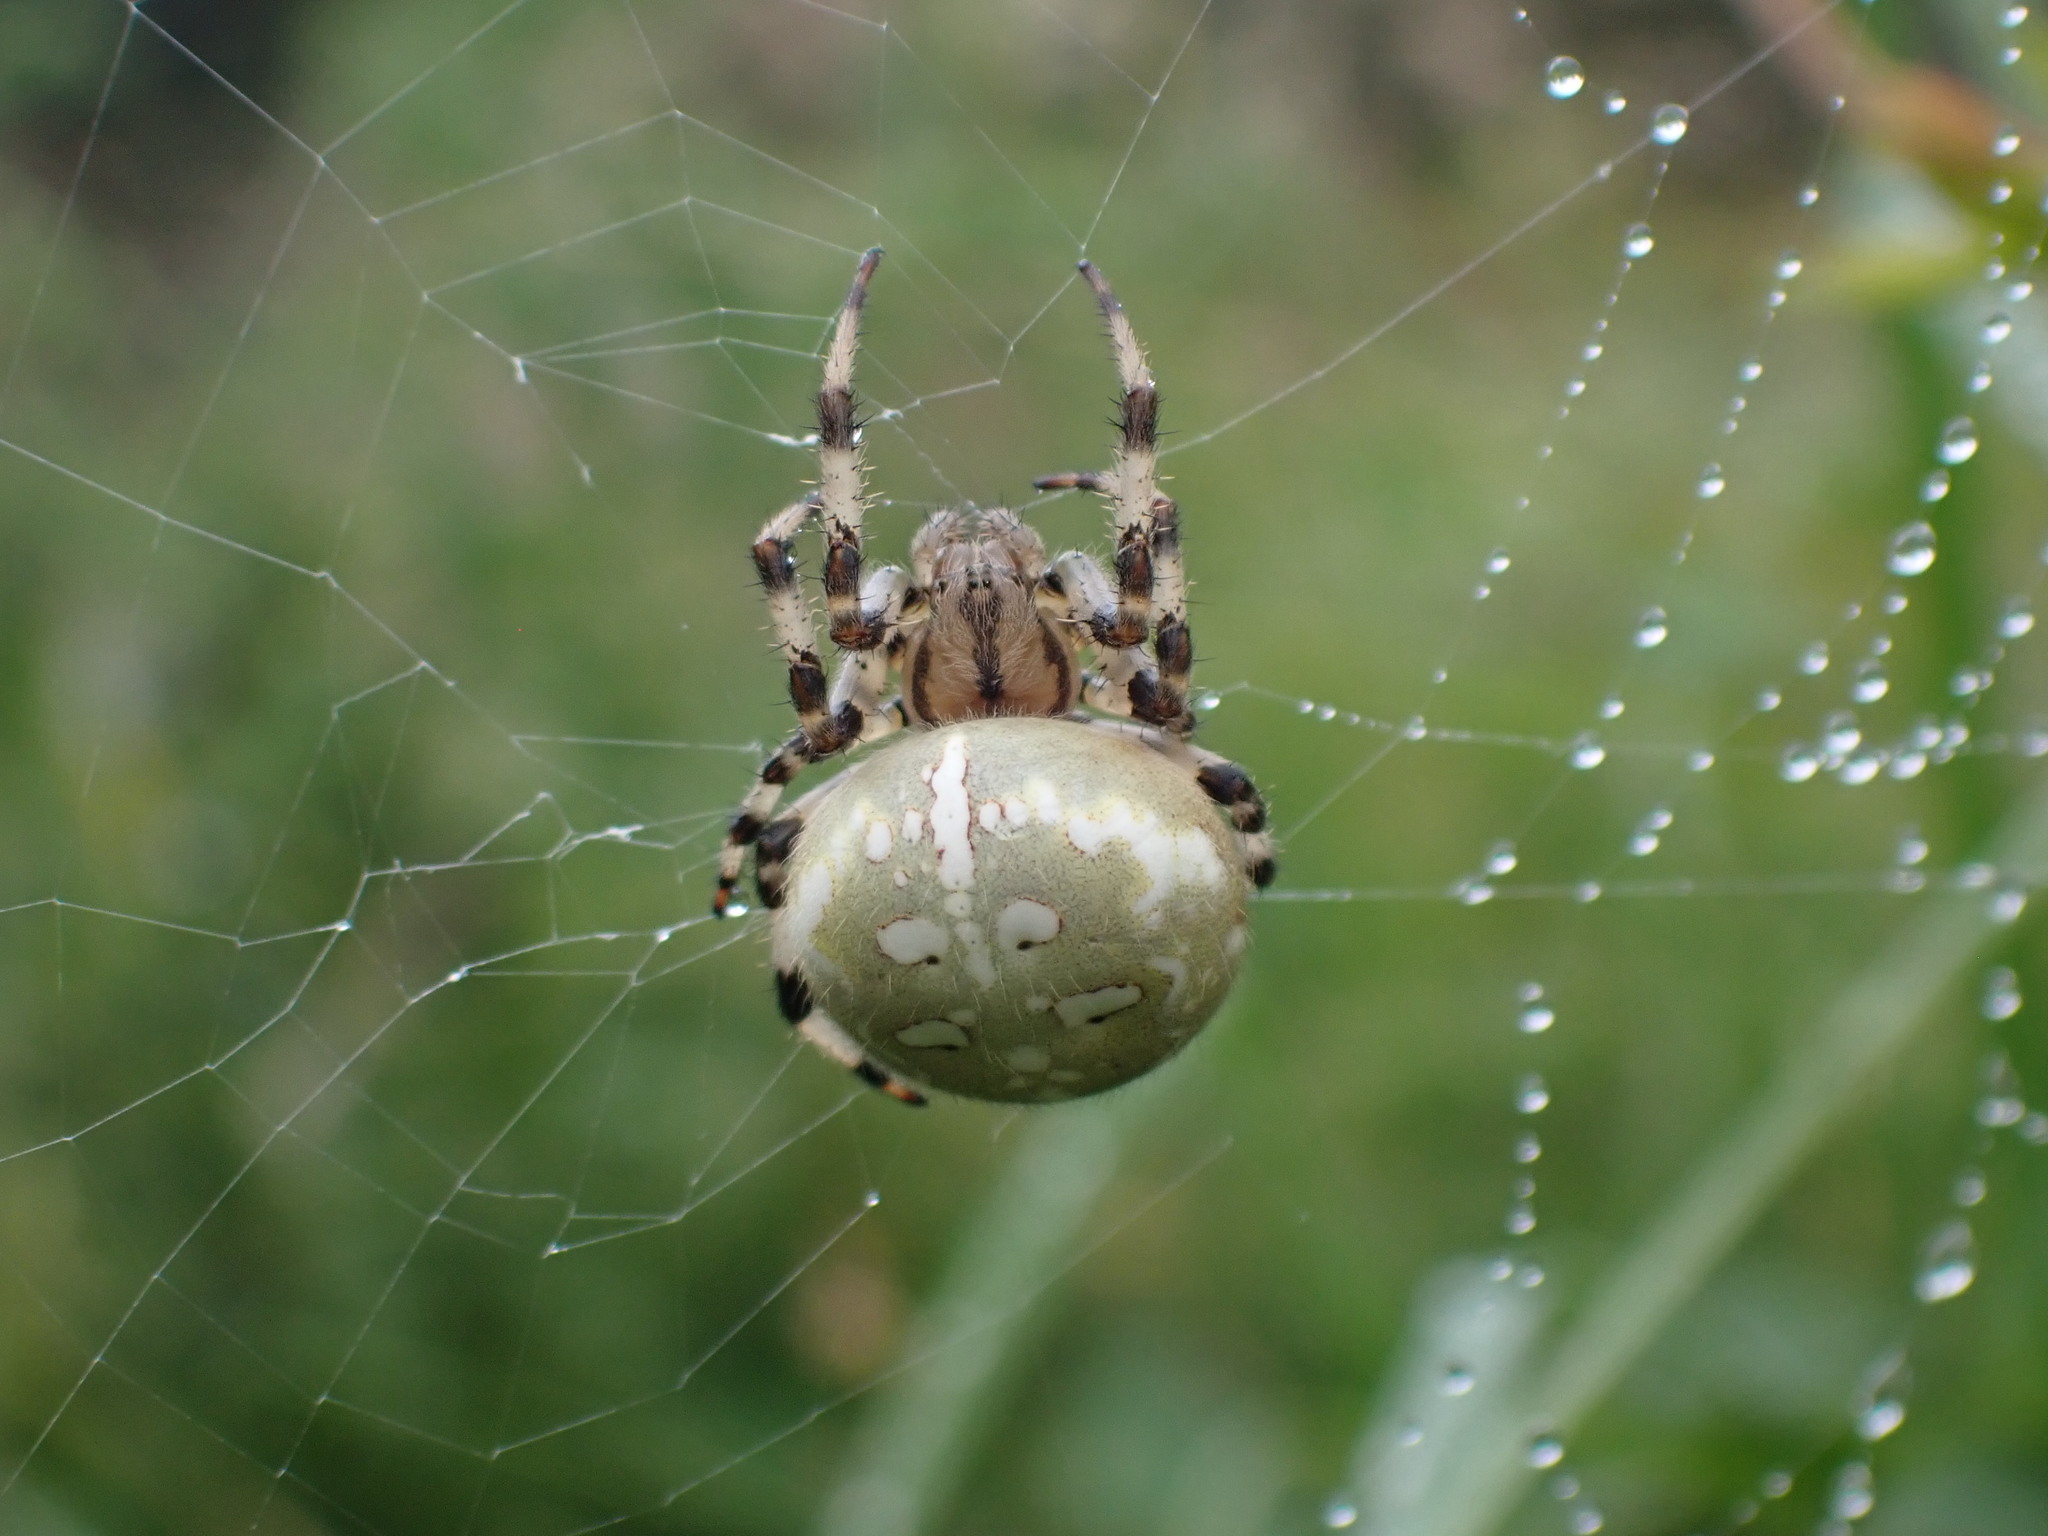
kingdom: Animalia
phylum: Arthropoda
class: Arachnida
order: Araneae
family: Araneidae
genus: Araneus
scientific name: Araneus quadratus
